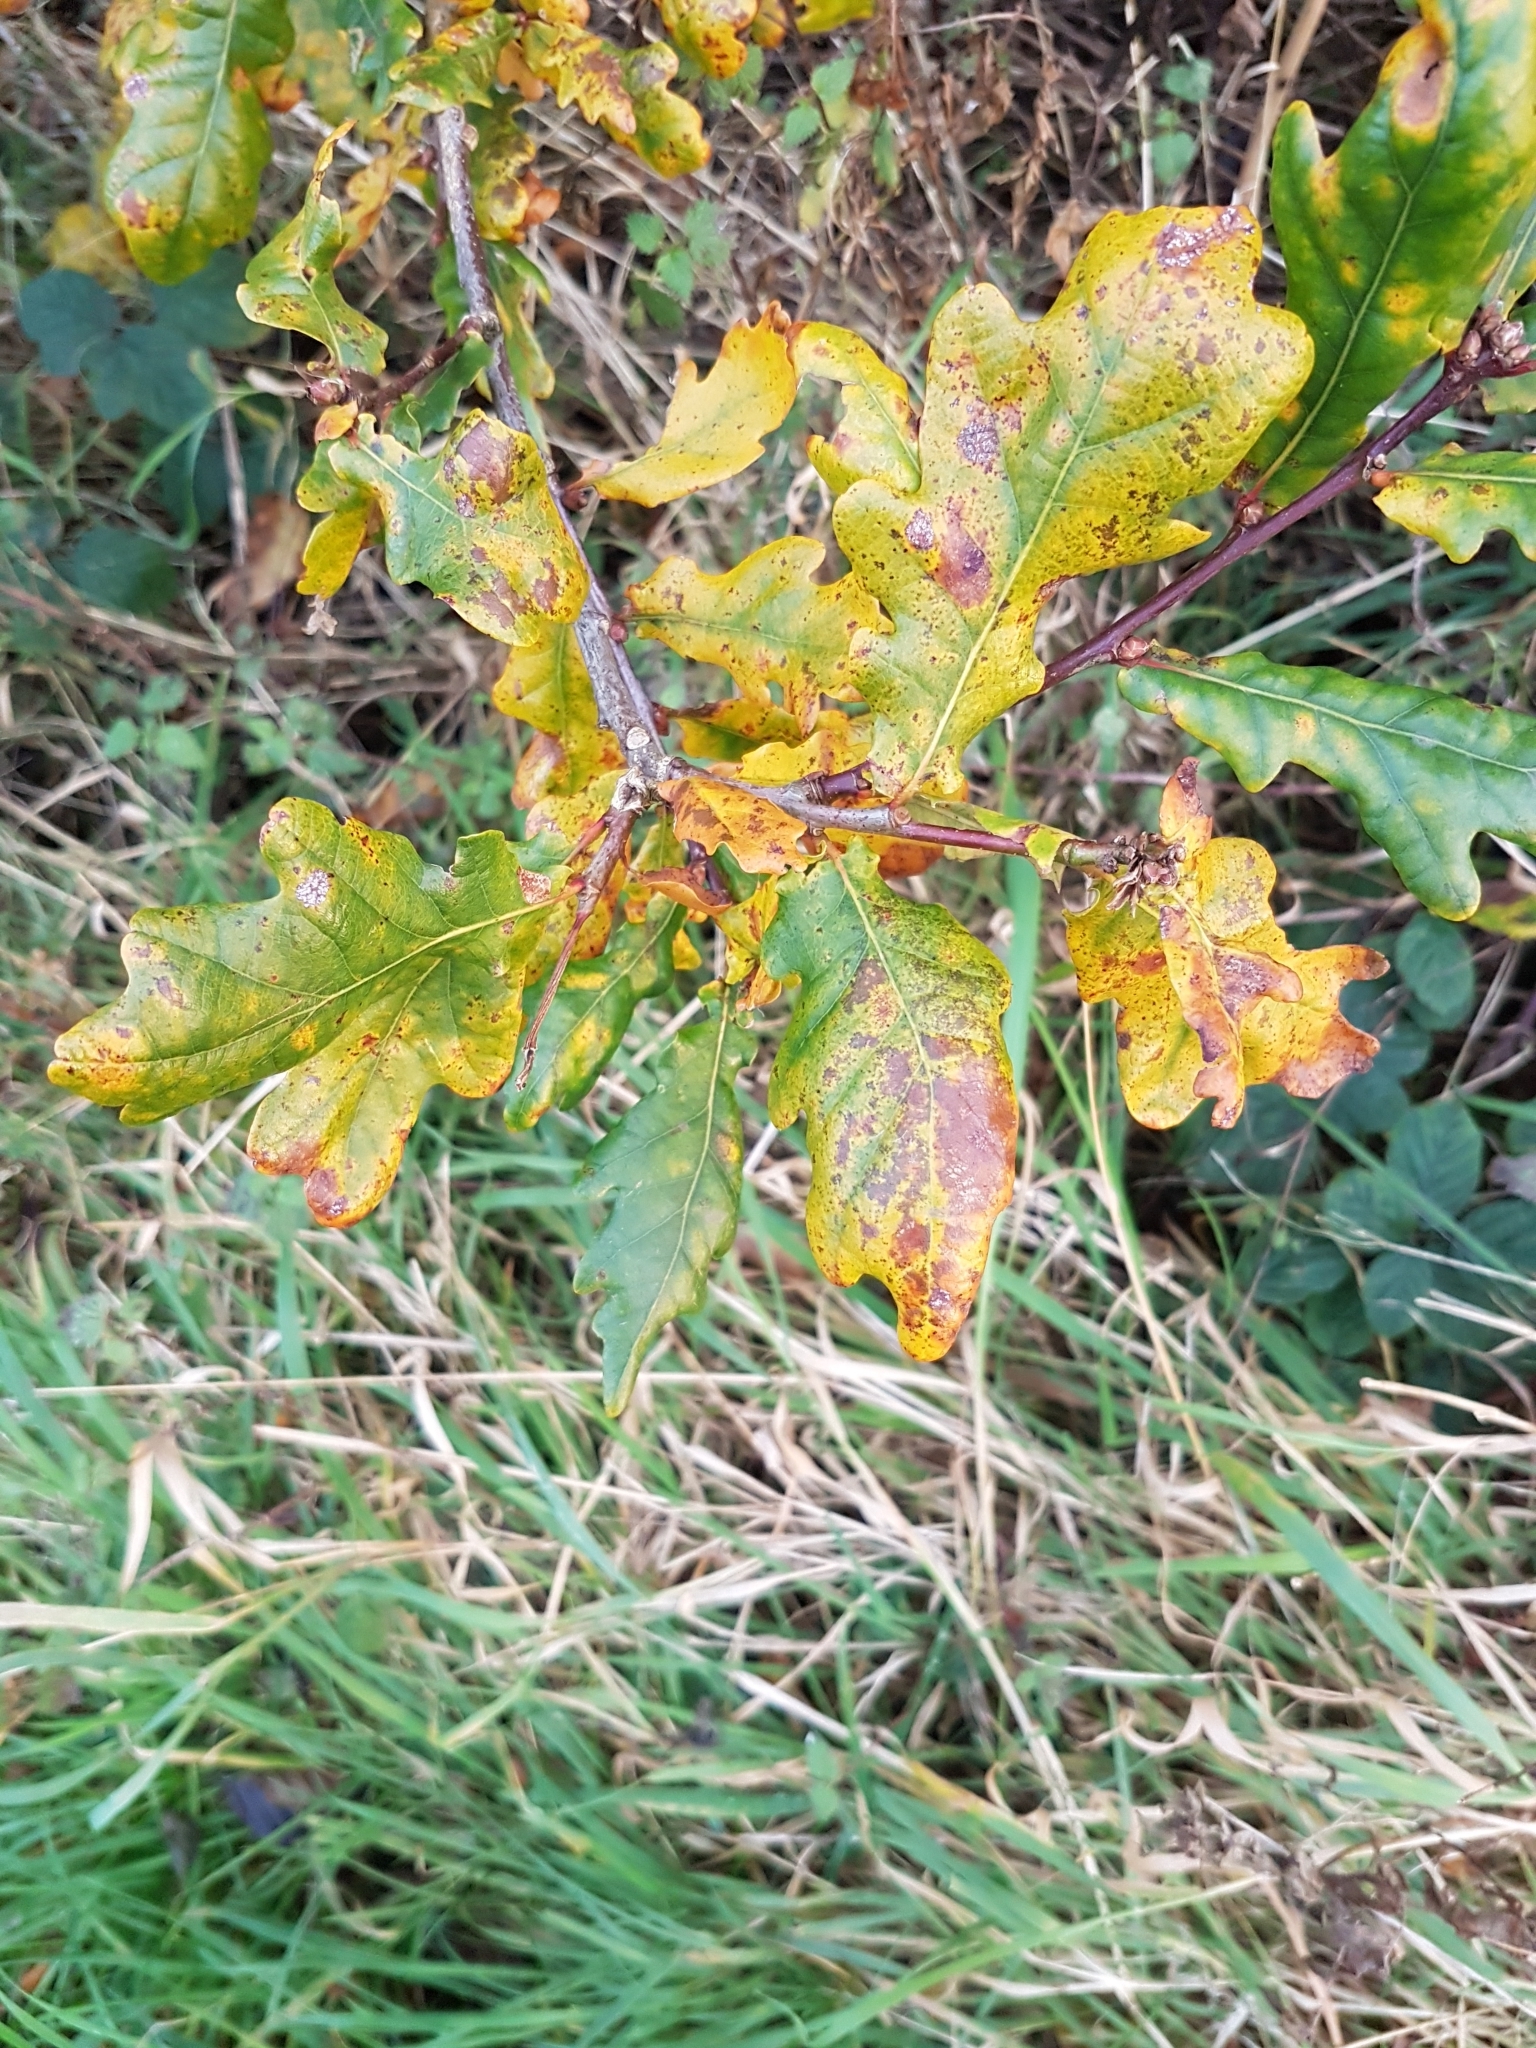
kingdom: Plantae
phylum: Tracheophyta
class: Magnoliopsida
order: Fagales
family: Fagaceae
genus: Quercus
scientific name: Quercus robur
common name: Pedunculate oak
